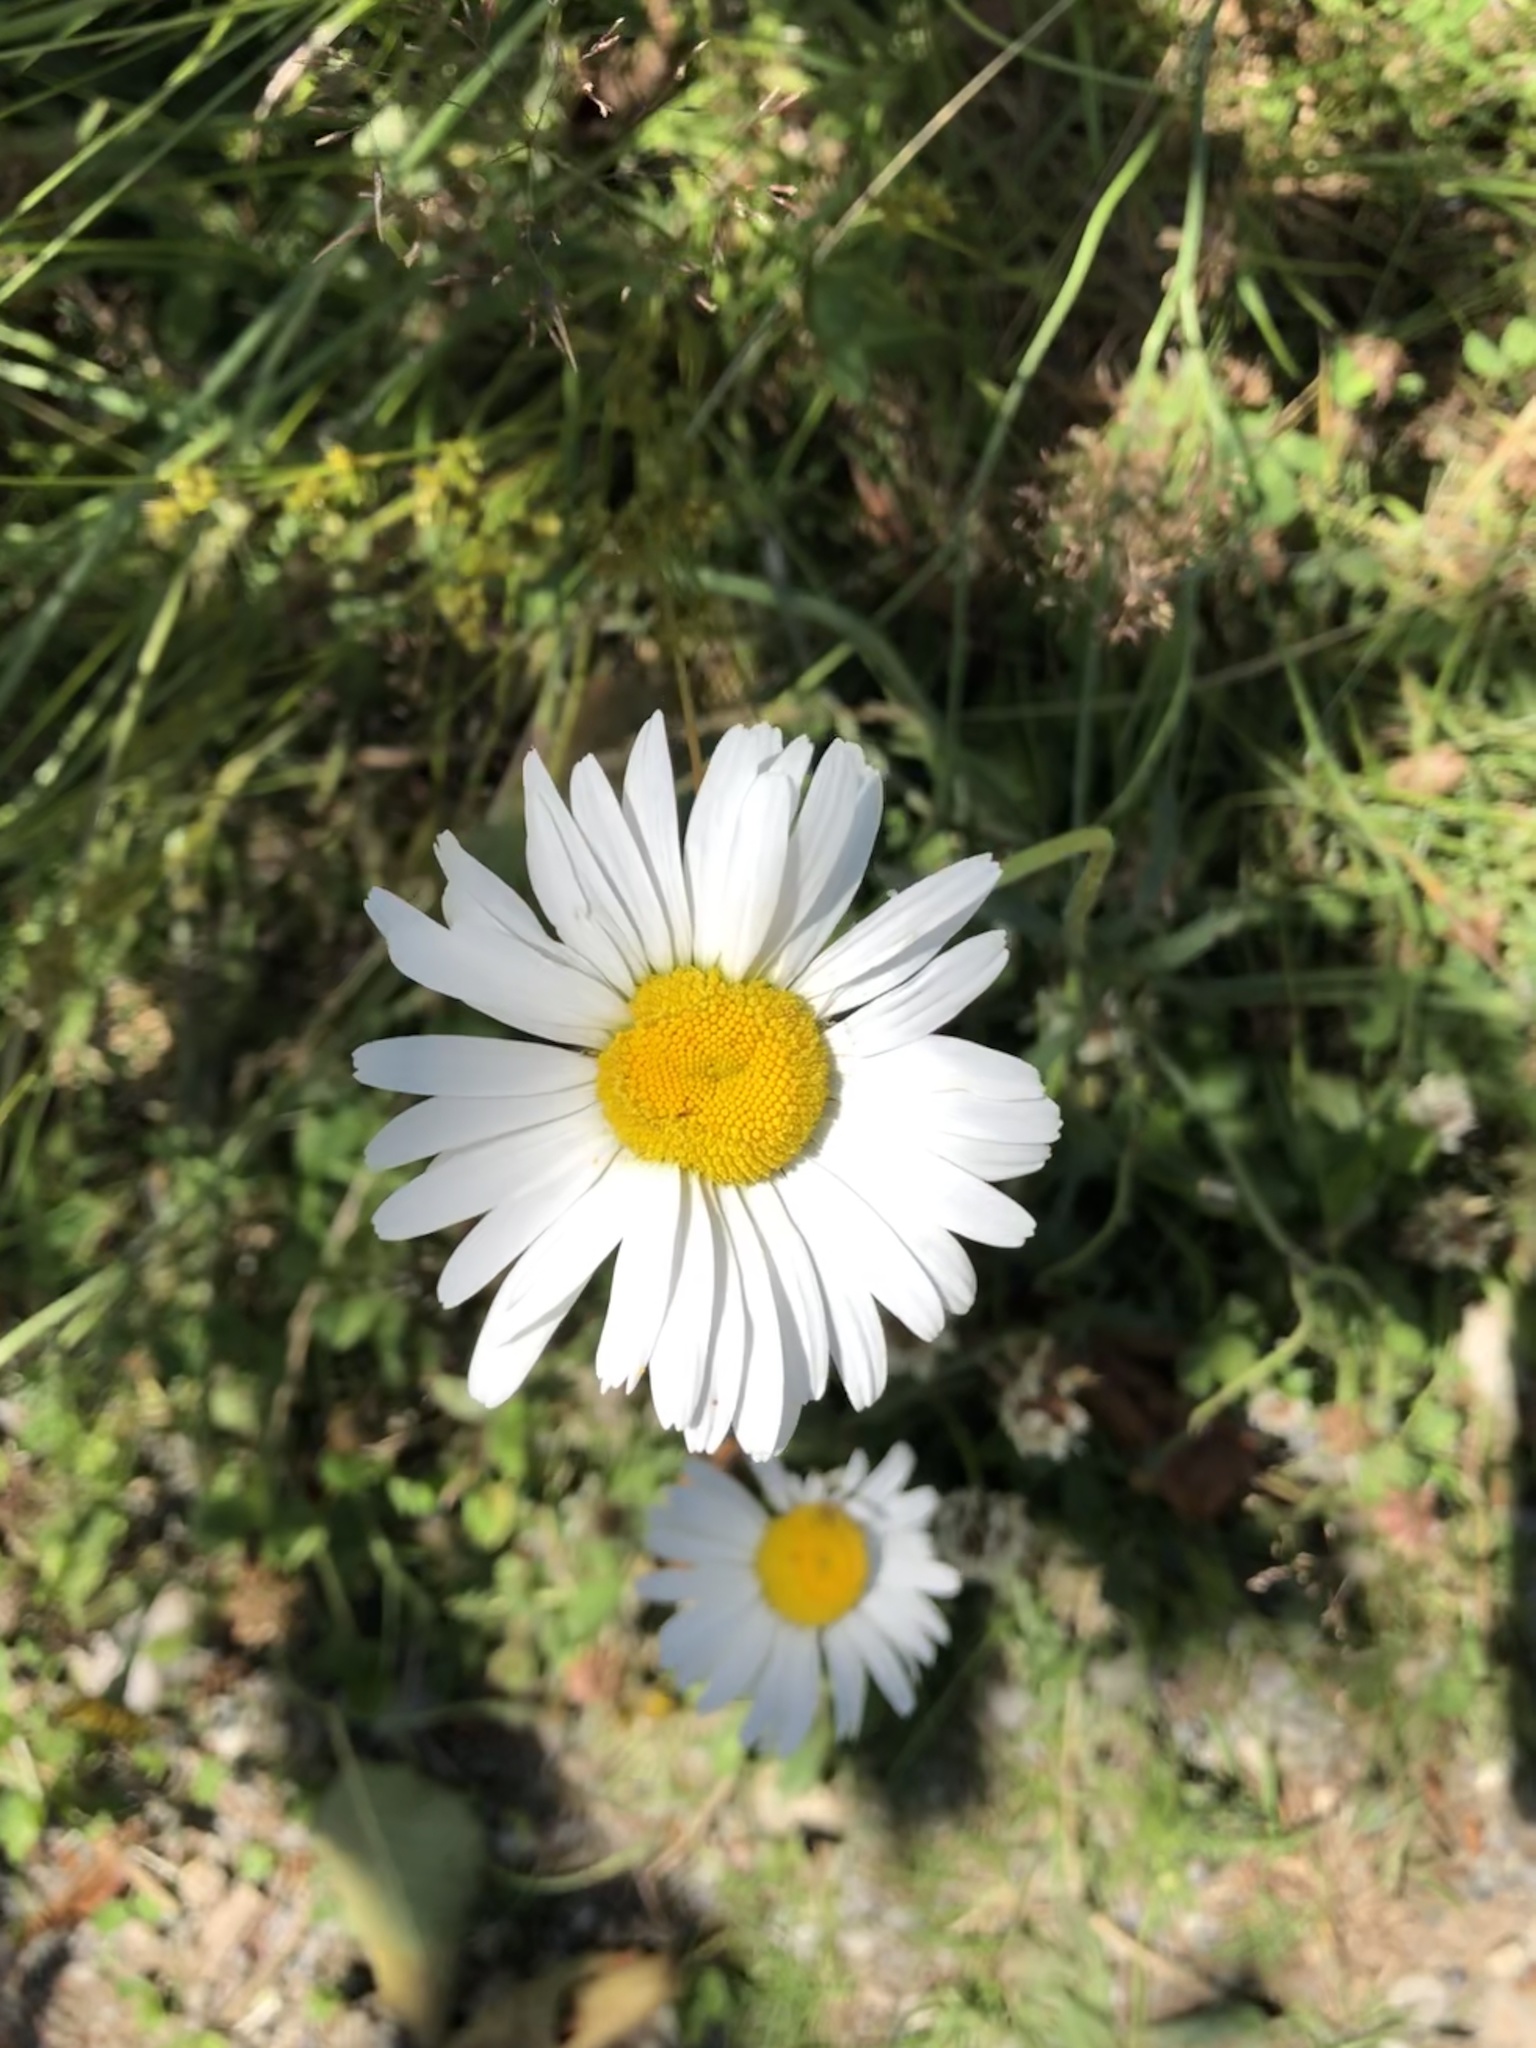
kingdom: Plantae
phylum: Tracheophyta
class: Magnoliopsida
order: Asterales
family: Asteraceae
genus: Leucanthemum
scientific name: Leucanthemum vulgare
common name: Oxeye daisy
